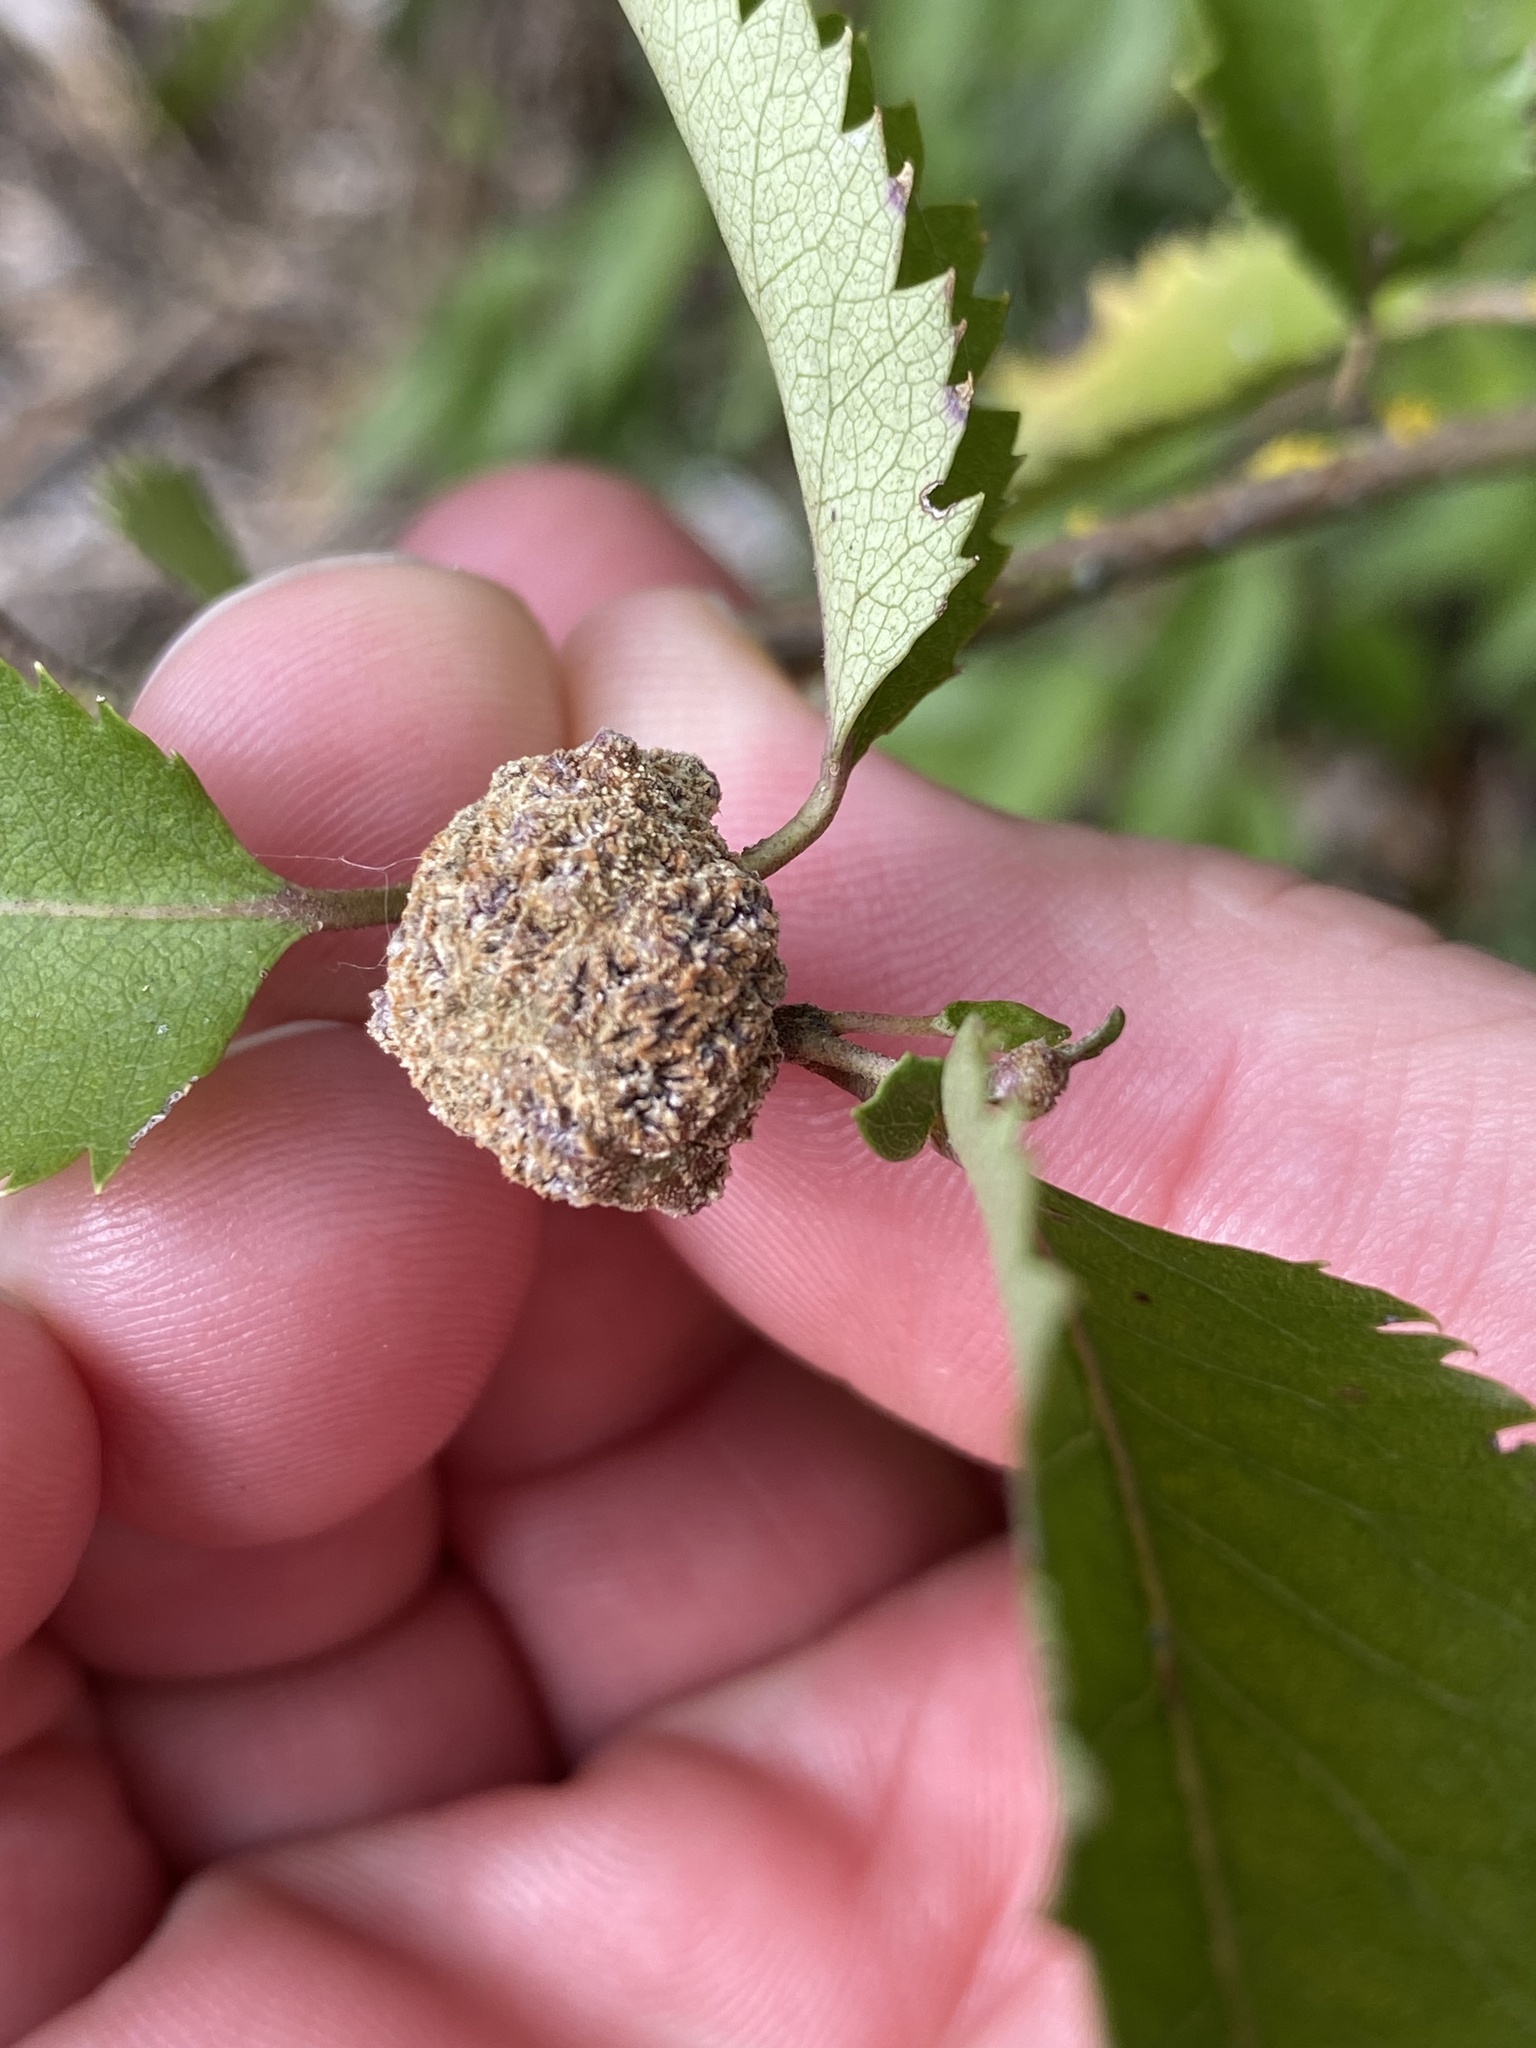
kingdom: Animalia
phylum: Arthropoda
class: Arachnida
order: Trombidiformes
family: Eriophyidae
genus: Eriophyes
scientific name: Eriophyes hoheriae
